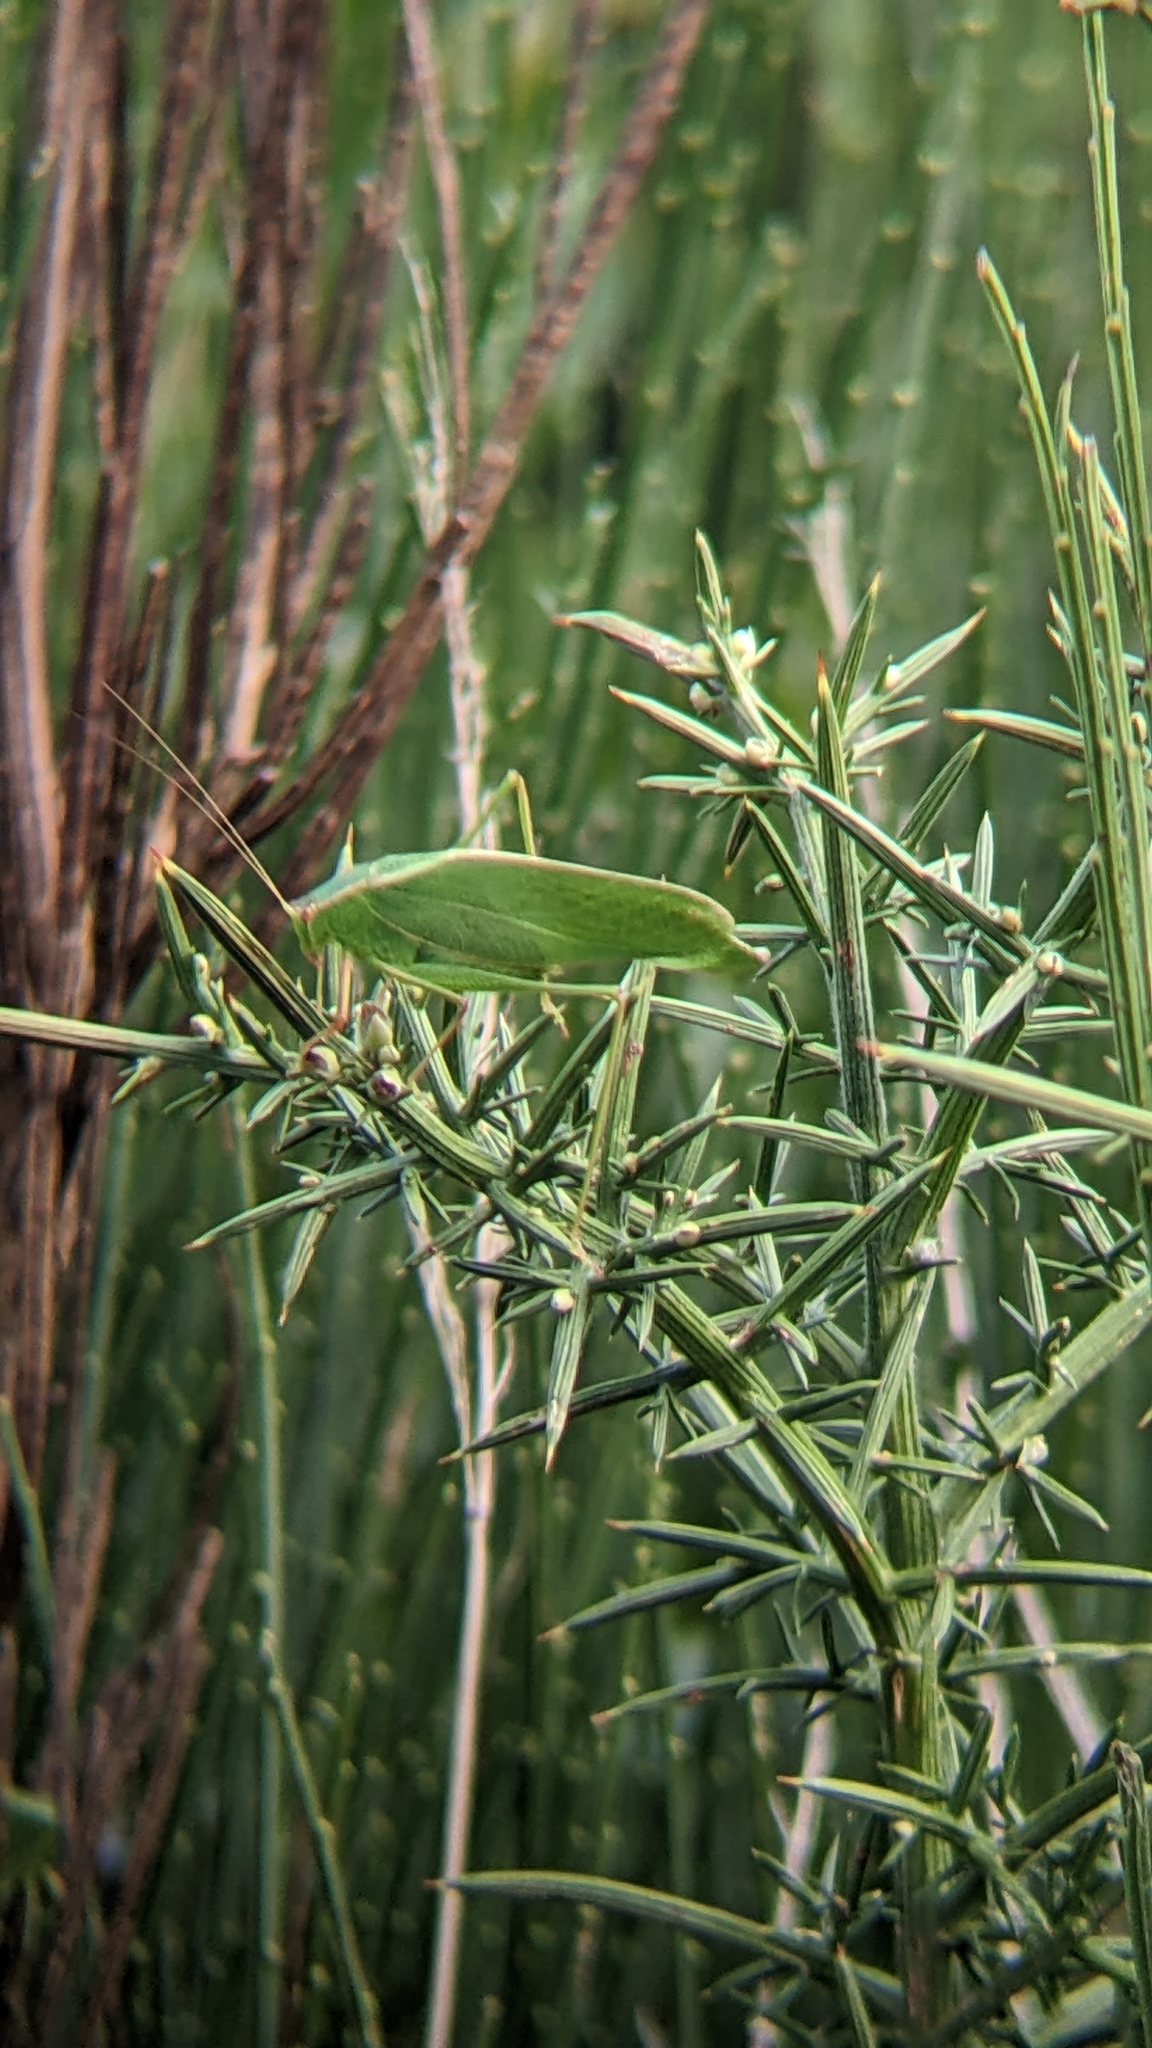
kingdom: Animalia
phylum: Arthropoda
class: Insecta
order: Orthoptera
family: Tettigoniidae
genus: Caedicia
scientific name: Caedicia simplex
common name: Common garden katydid
